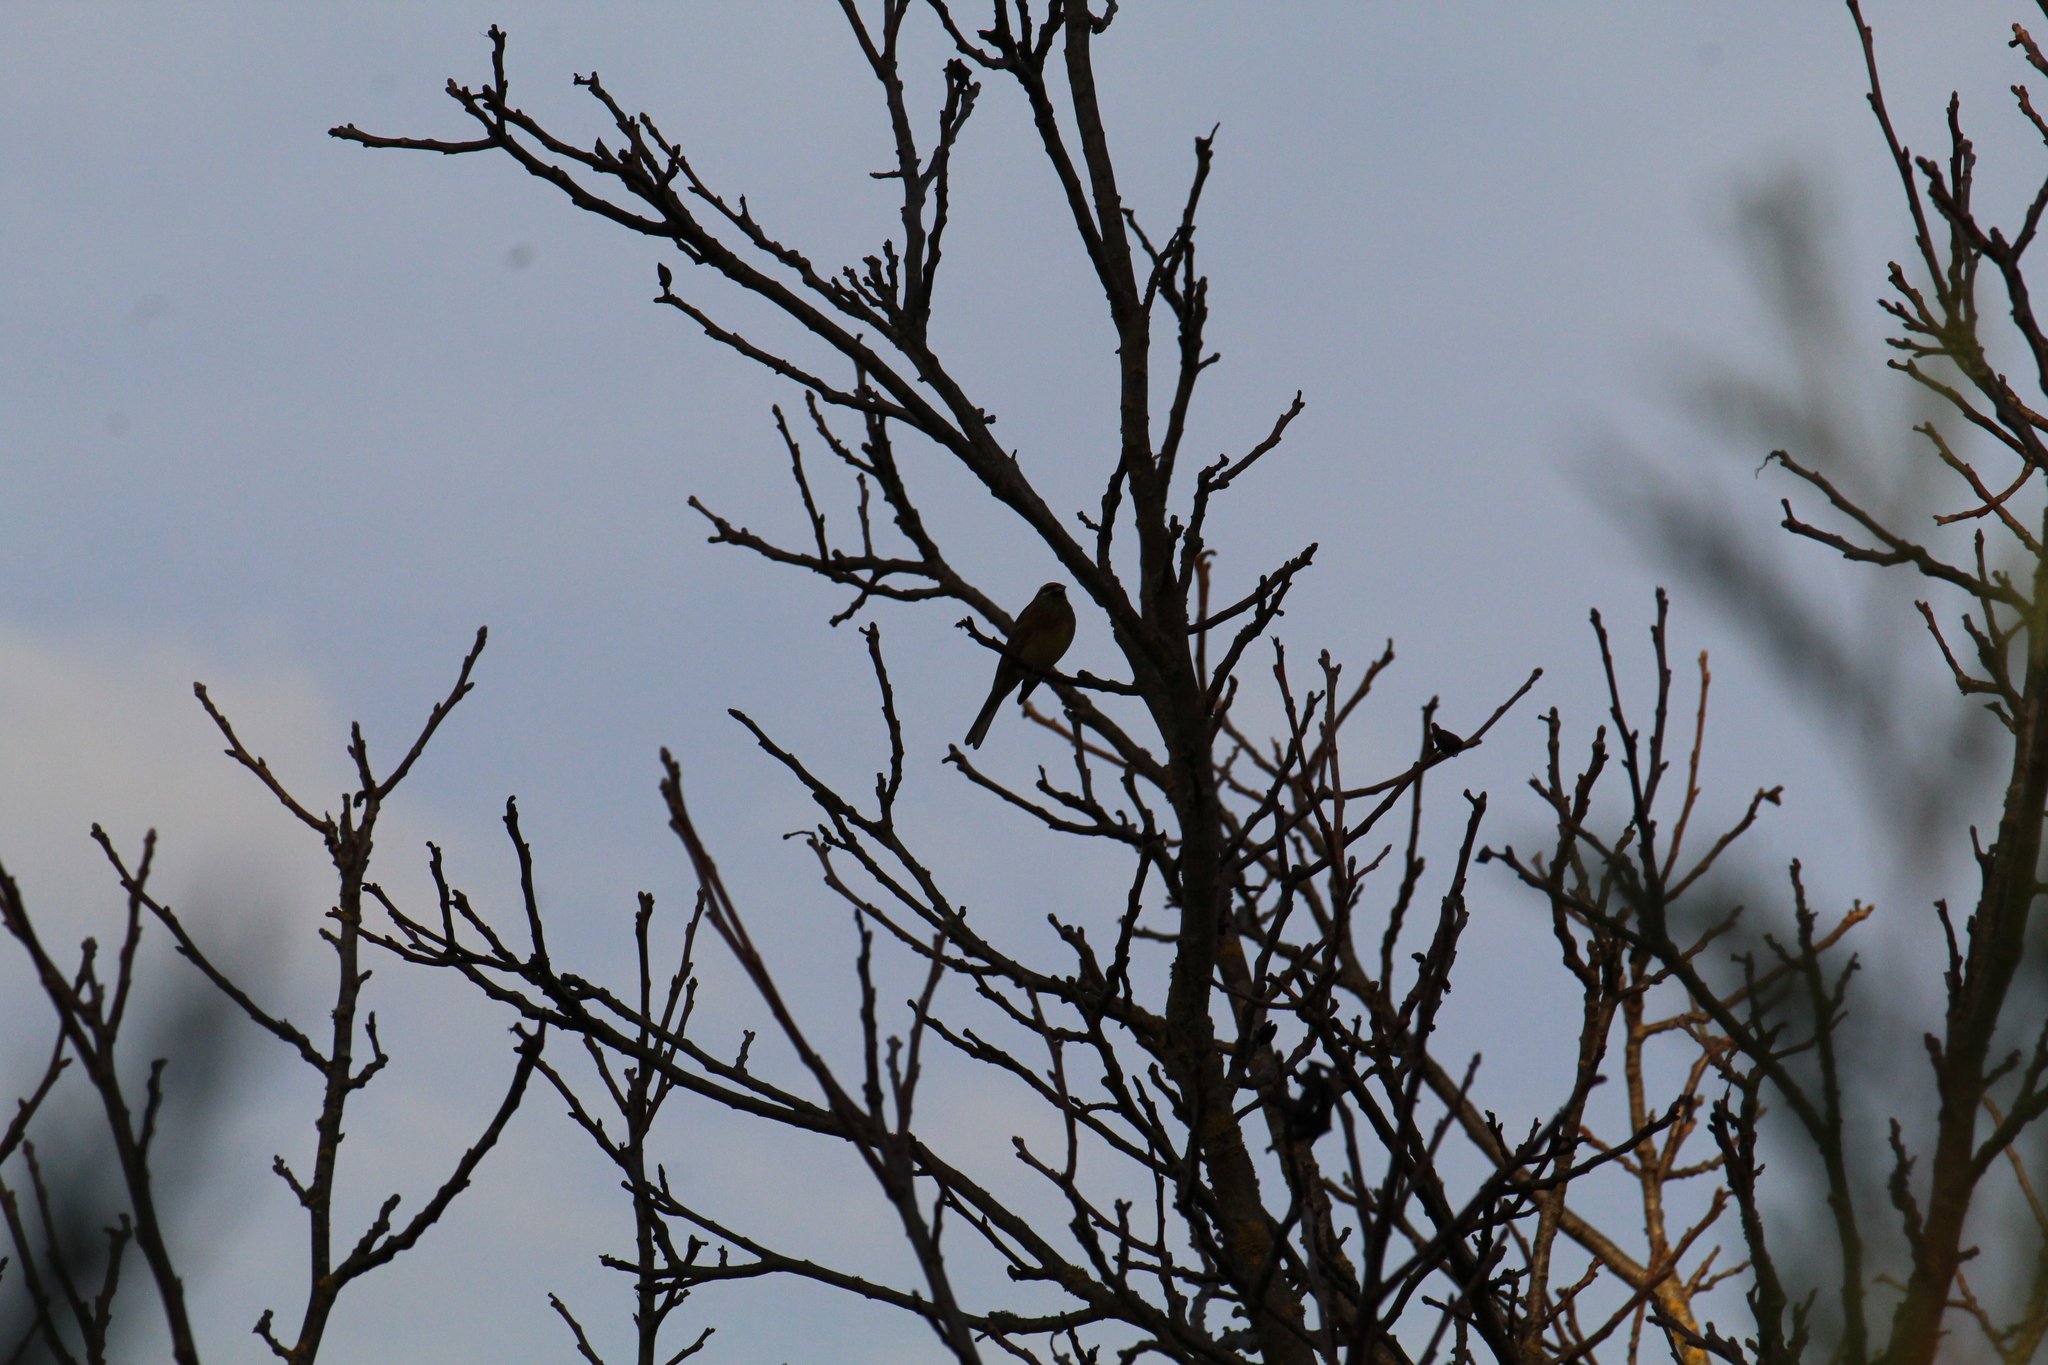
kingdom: Animalia
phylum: Chordata
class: Aves
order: Passeriformes
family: Emberizidae
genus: Emberiza
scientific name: Emberiza cirlus
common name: Cirl bunting
